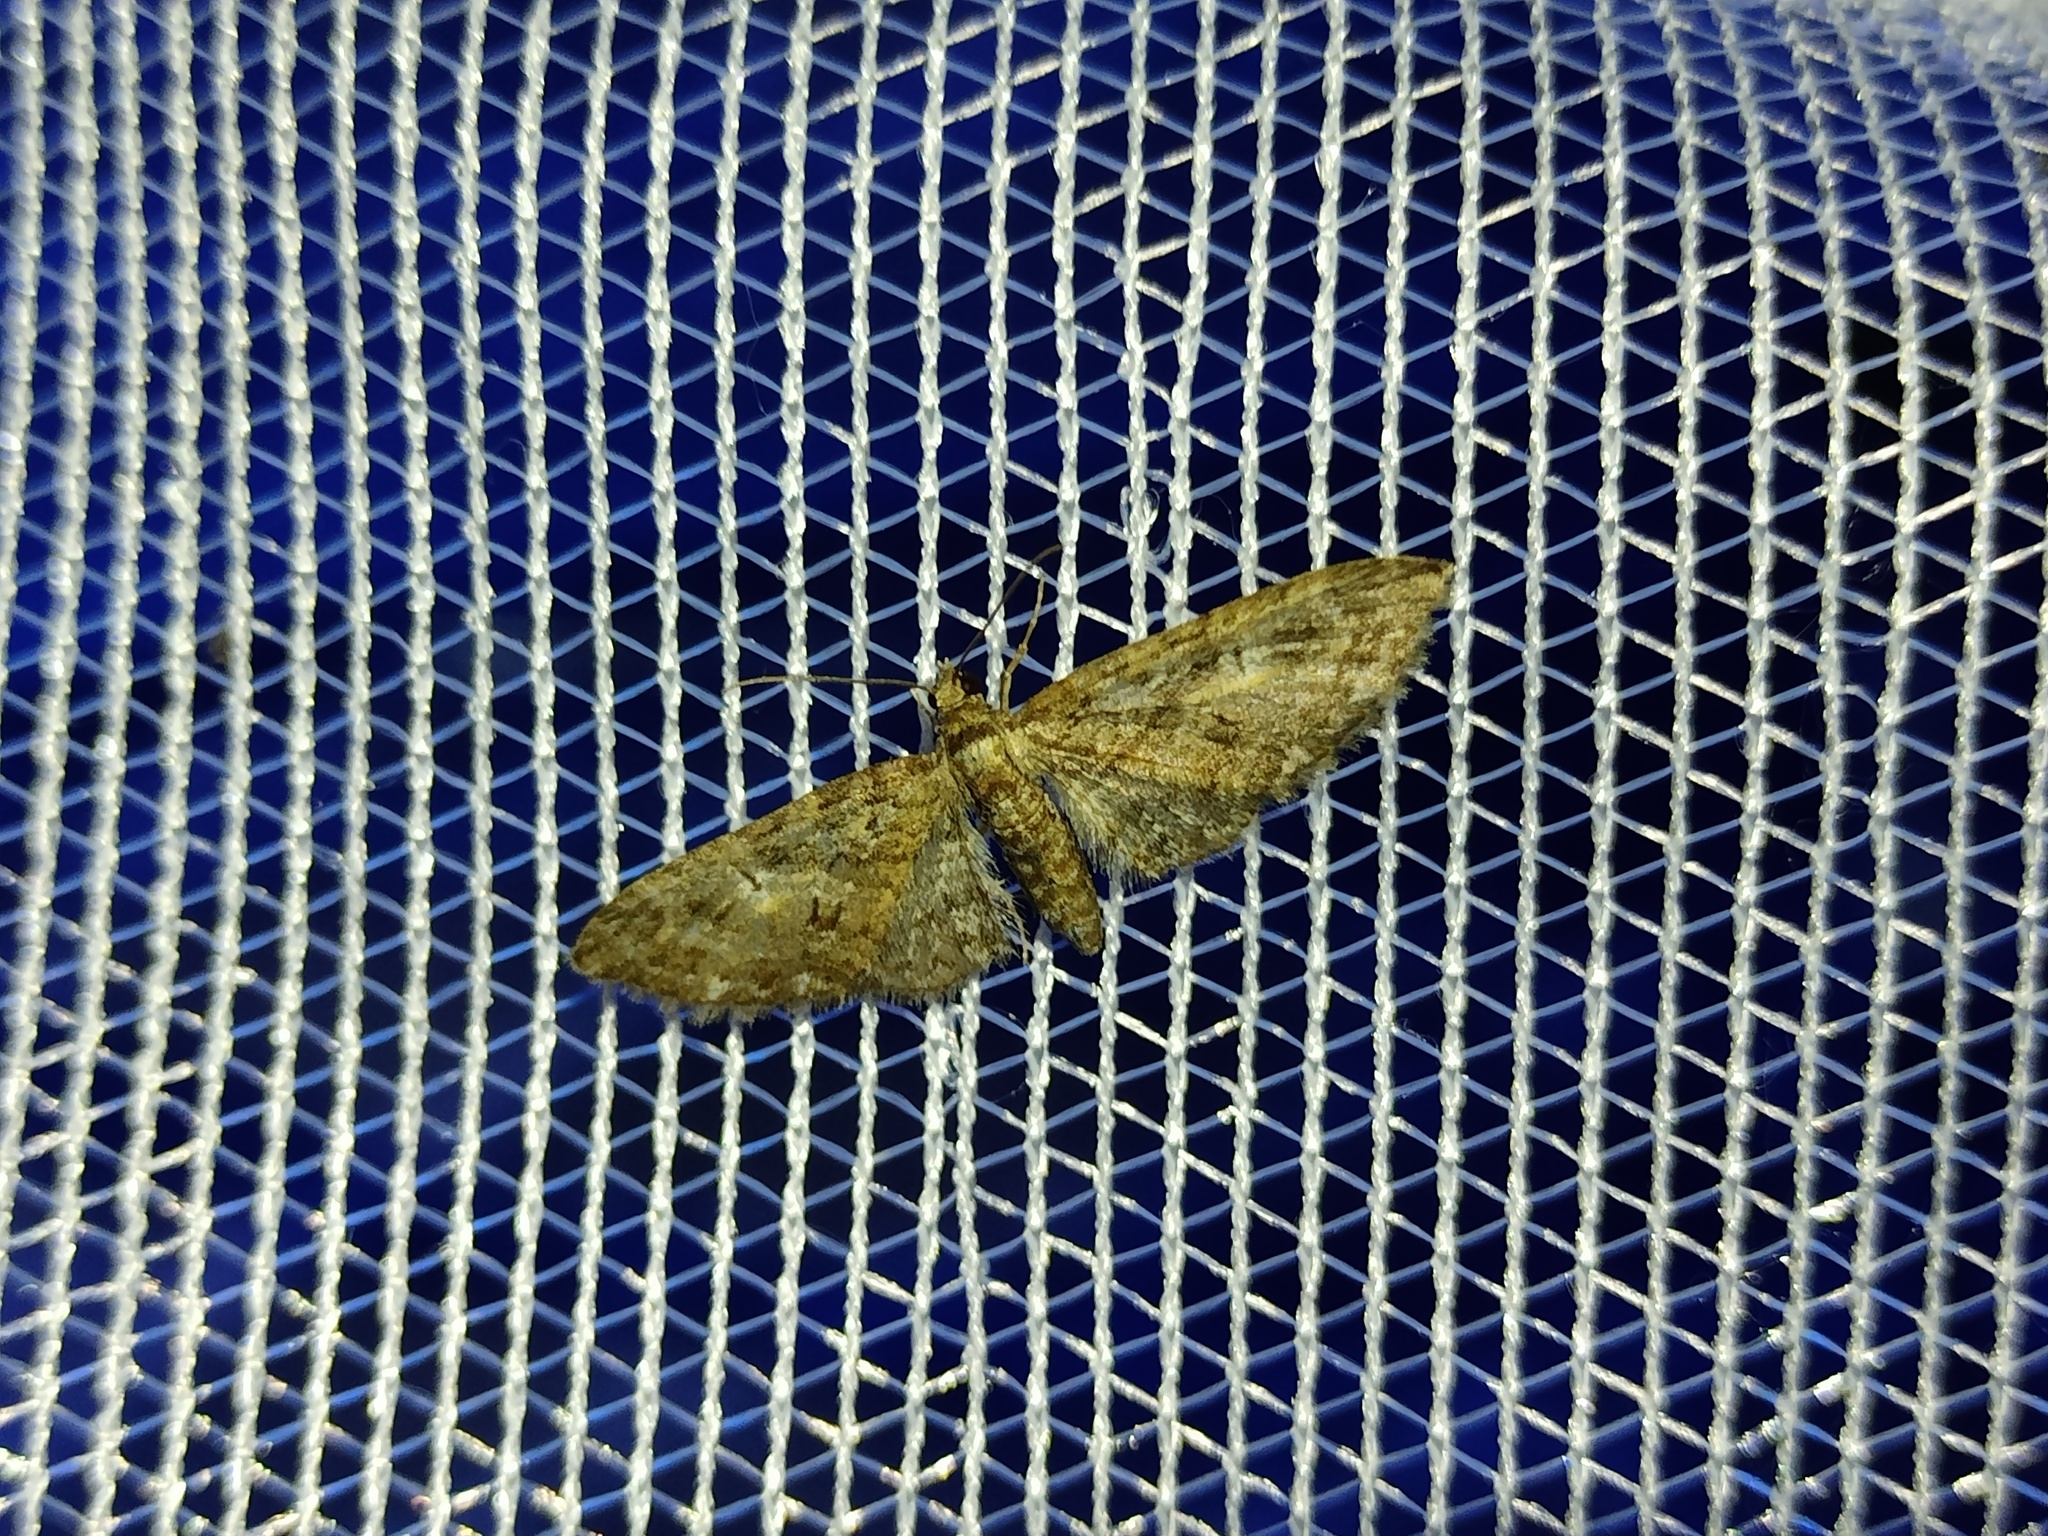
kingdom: Animalia
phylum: Arthropoda
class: Insecta
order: Lepidoptera
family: Geometridae
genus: Eupithecia
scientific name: Eupithecia abbreviata
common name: Brindled pug
